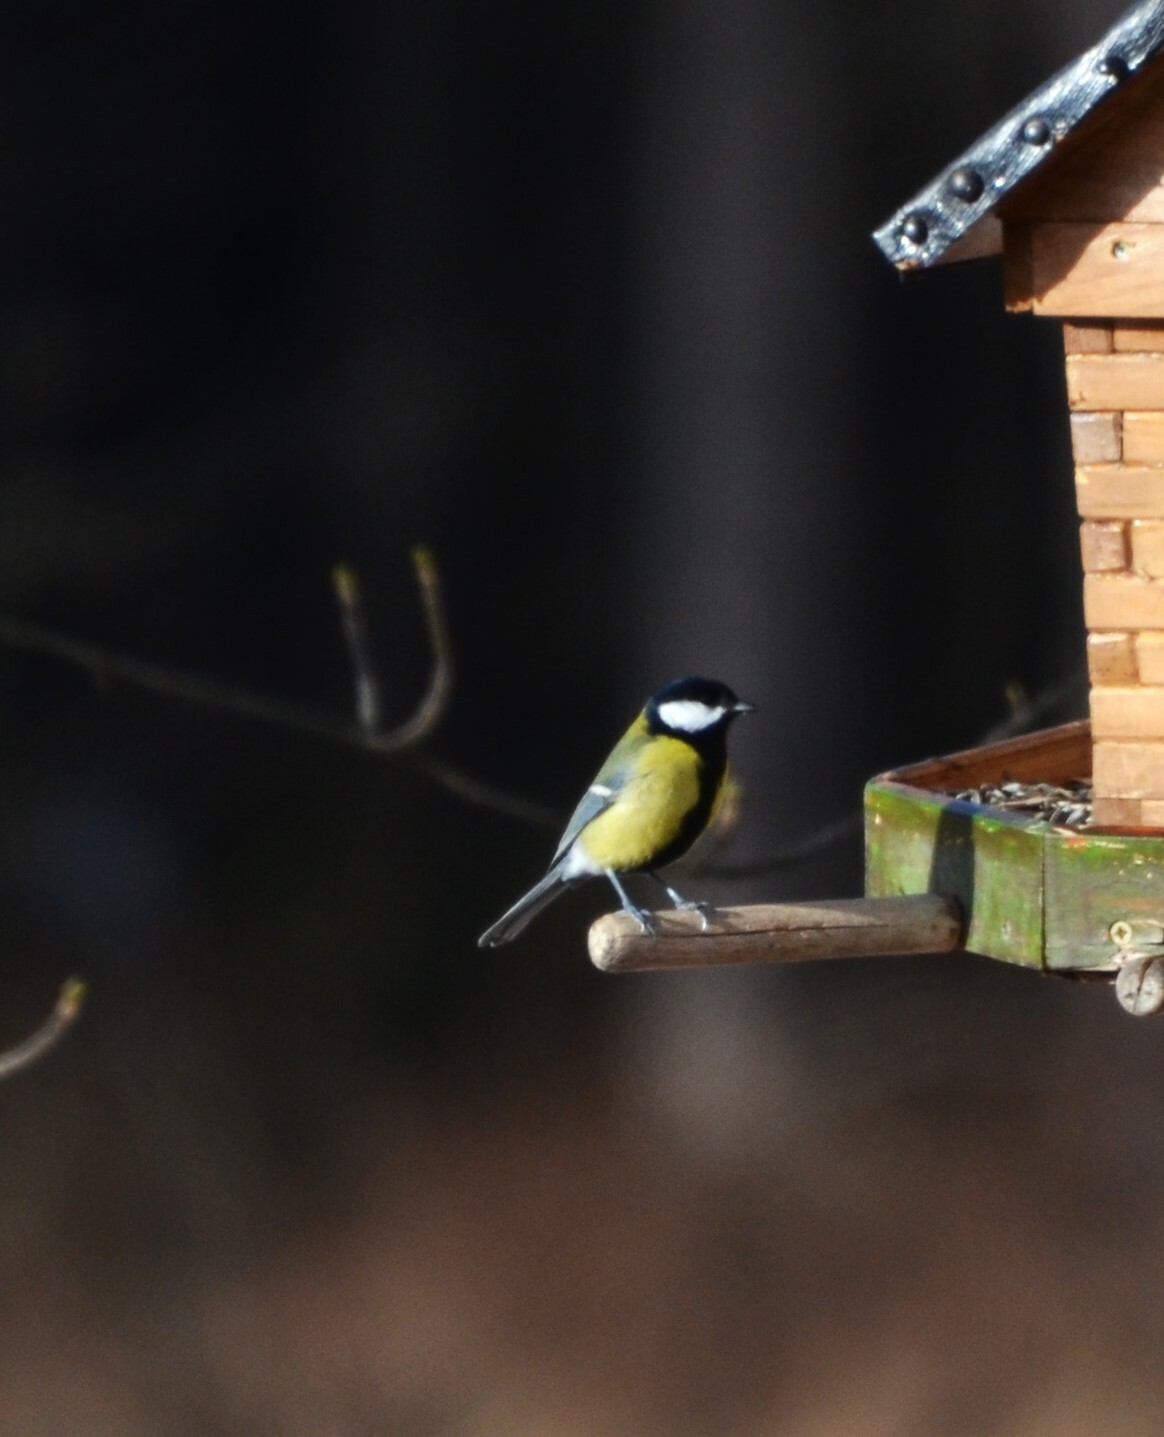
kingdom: Animalia
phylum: Chordata
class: Aves
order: Passeriformes
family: Paridae
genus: Parus
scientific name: Parus major
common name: Great tit
